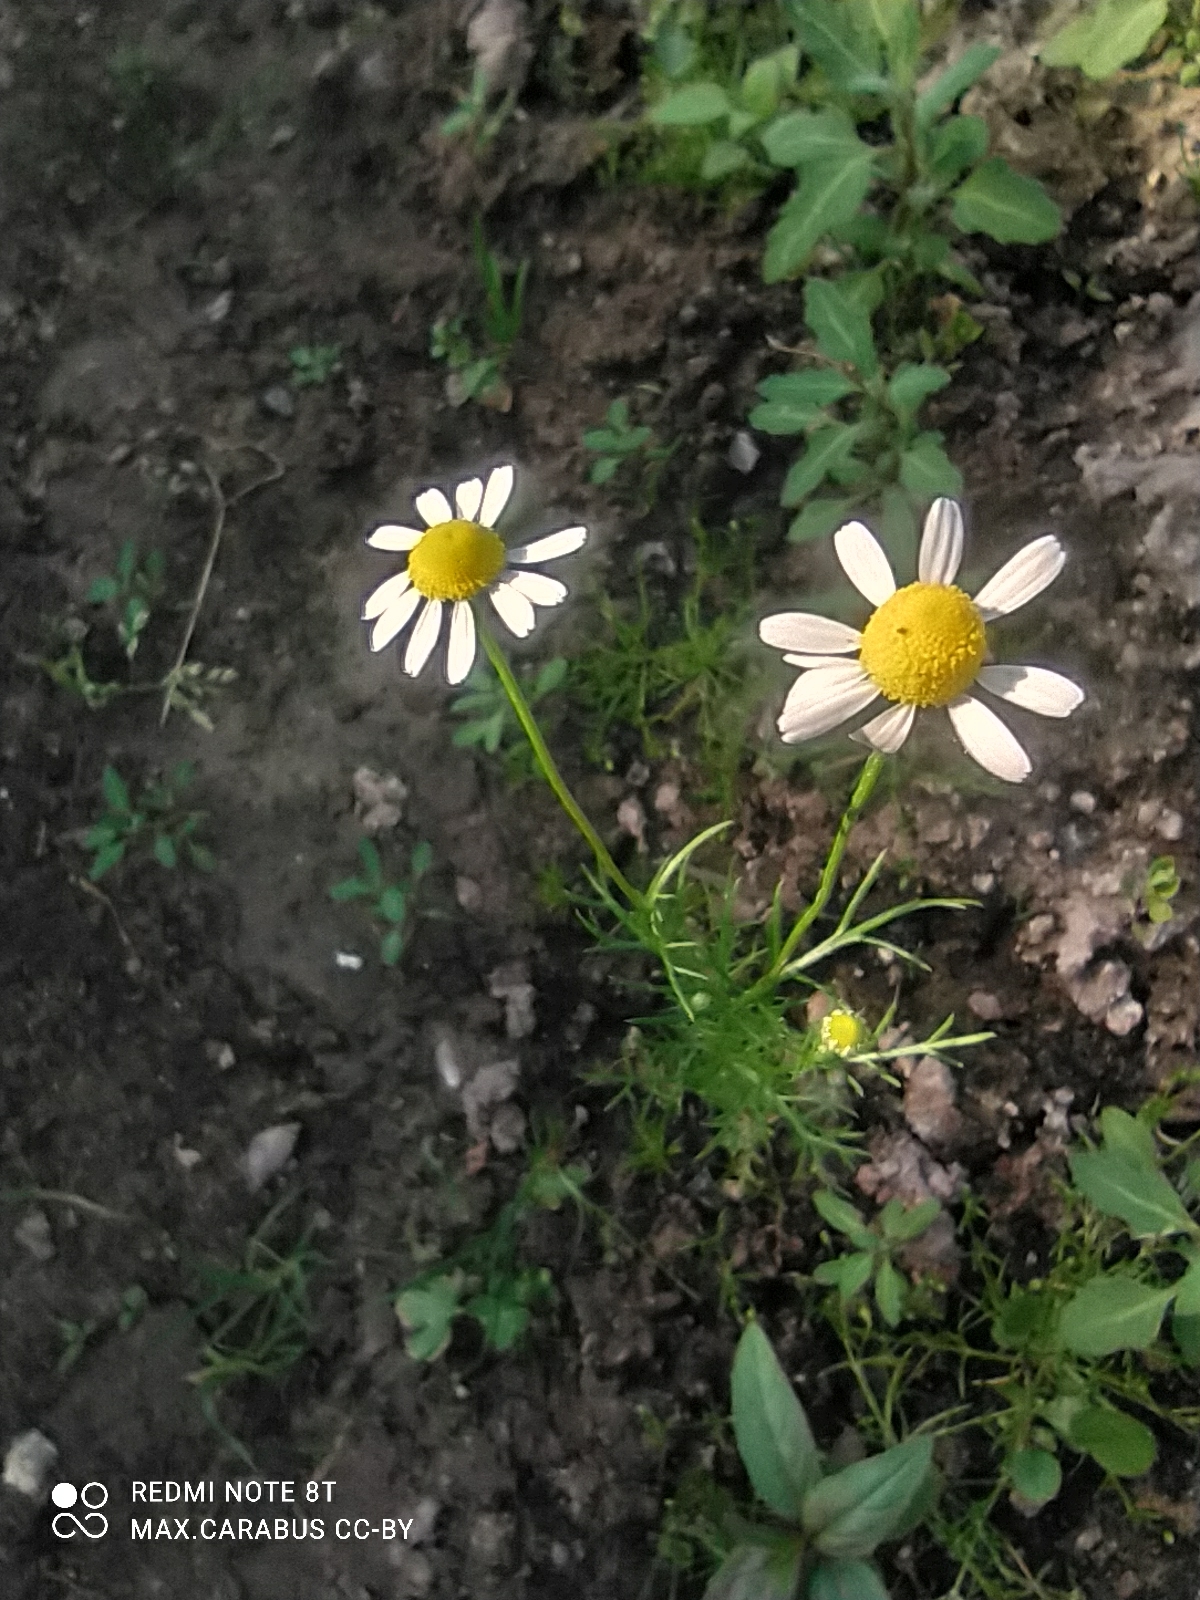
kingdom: Plantae
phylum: Tracheophyta
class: Magnoliopsida
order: Asterales
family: Asteraceae
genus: Tripleurospermum
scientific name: Tripleurospermum inodorum
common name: Scentless mayweed
